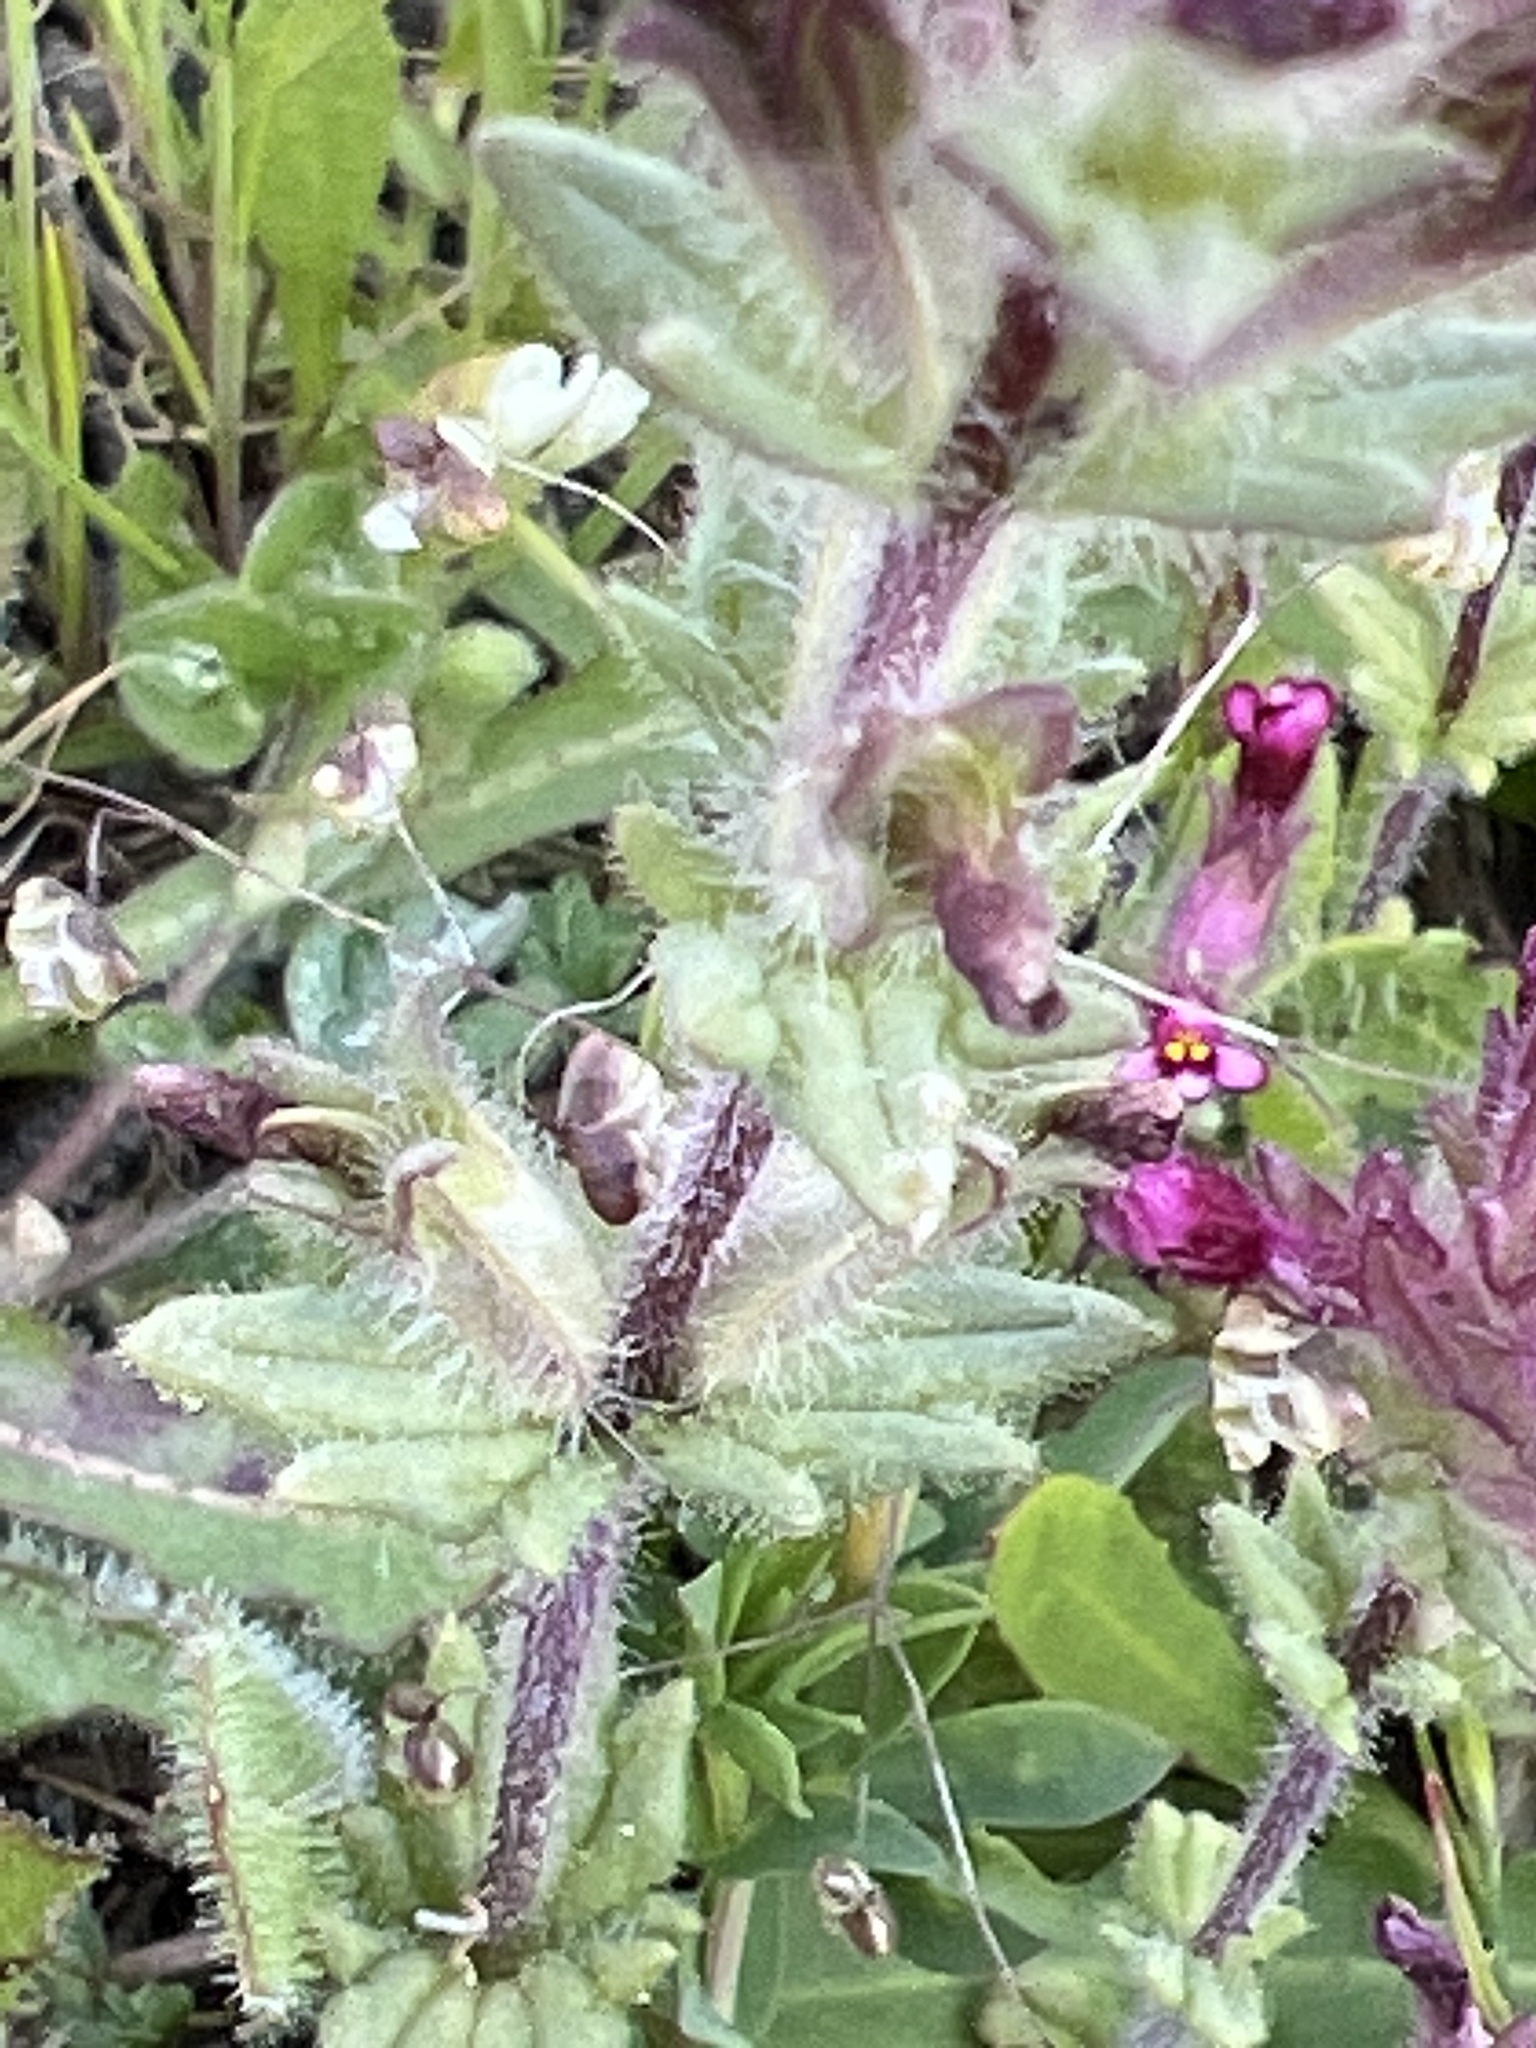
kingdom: Plantae
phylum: Tracheophyta
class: Magnoliopsida
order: Lamiales
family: Orobanchaceae
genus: Parentucellia
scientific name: Parentucellia latifolia
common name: Broadleaf glandweed
